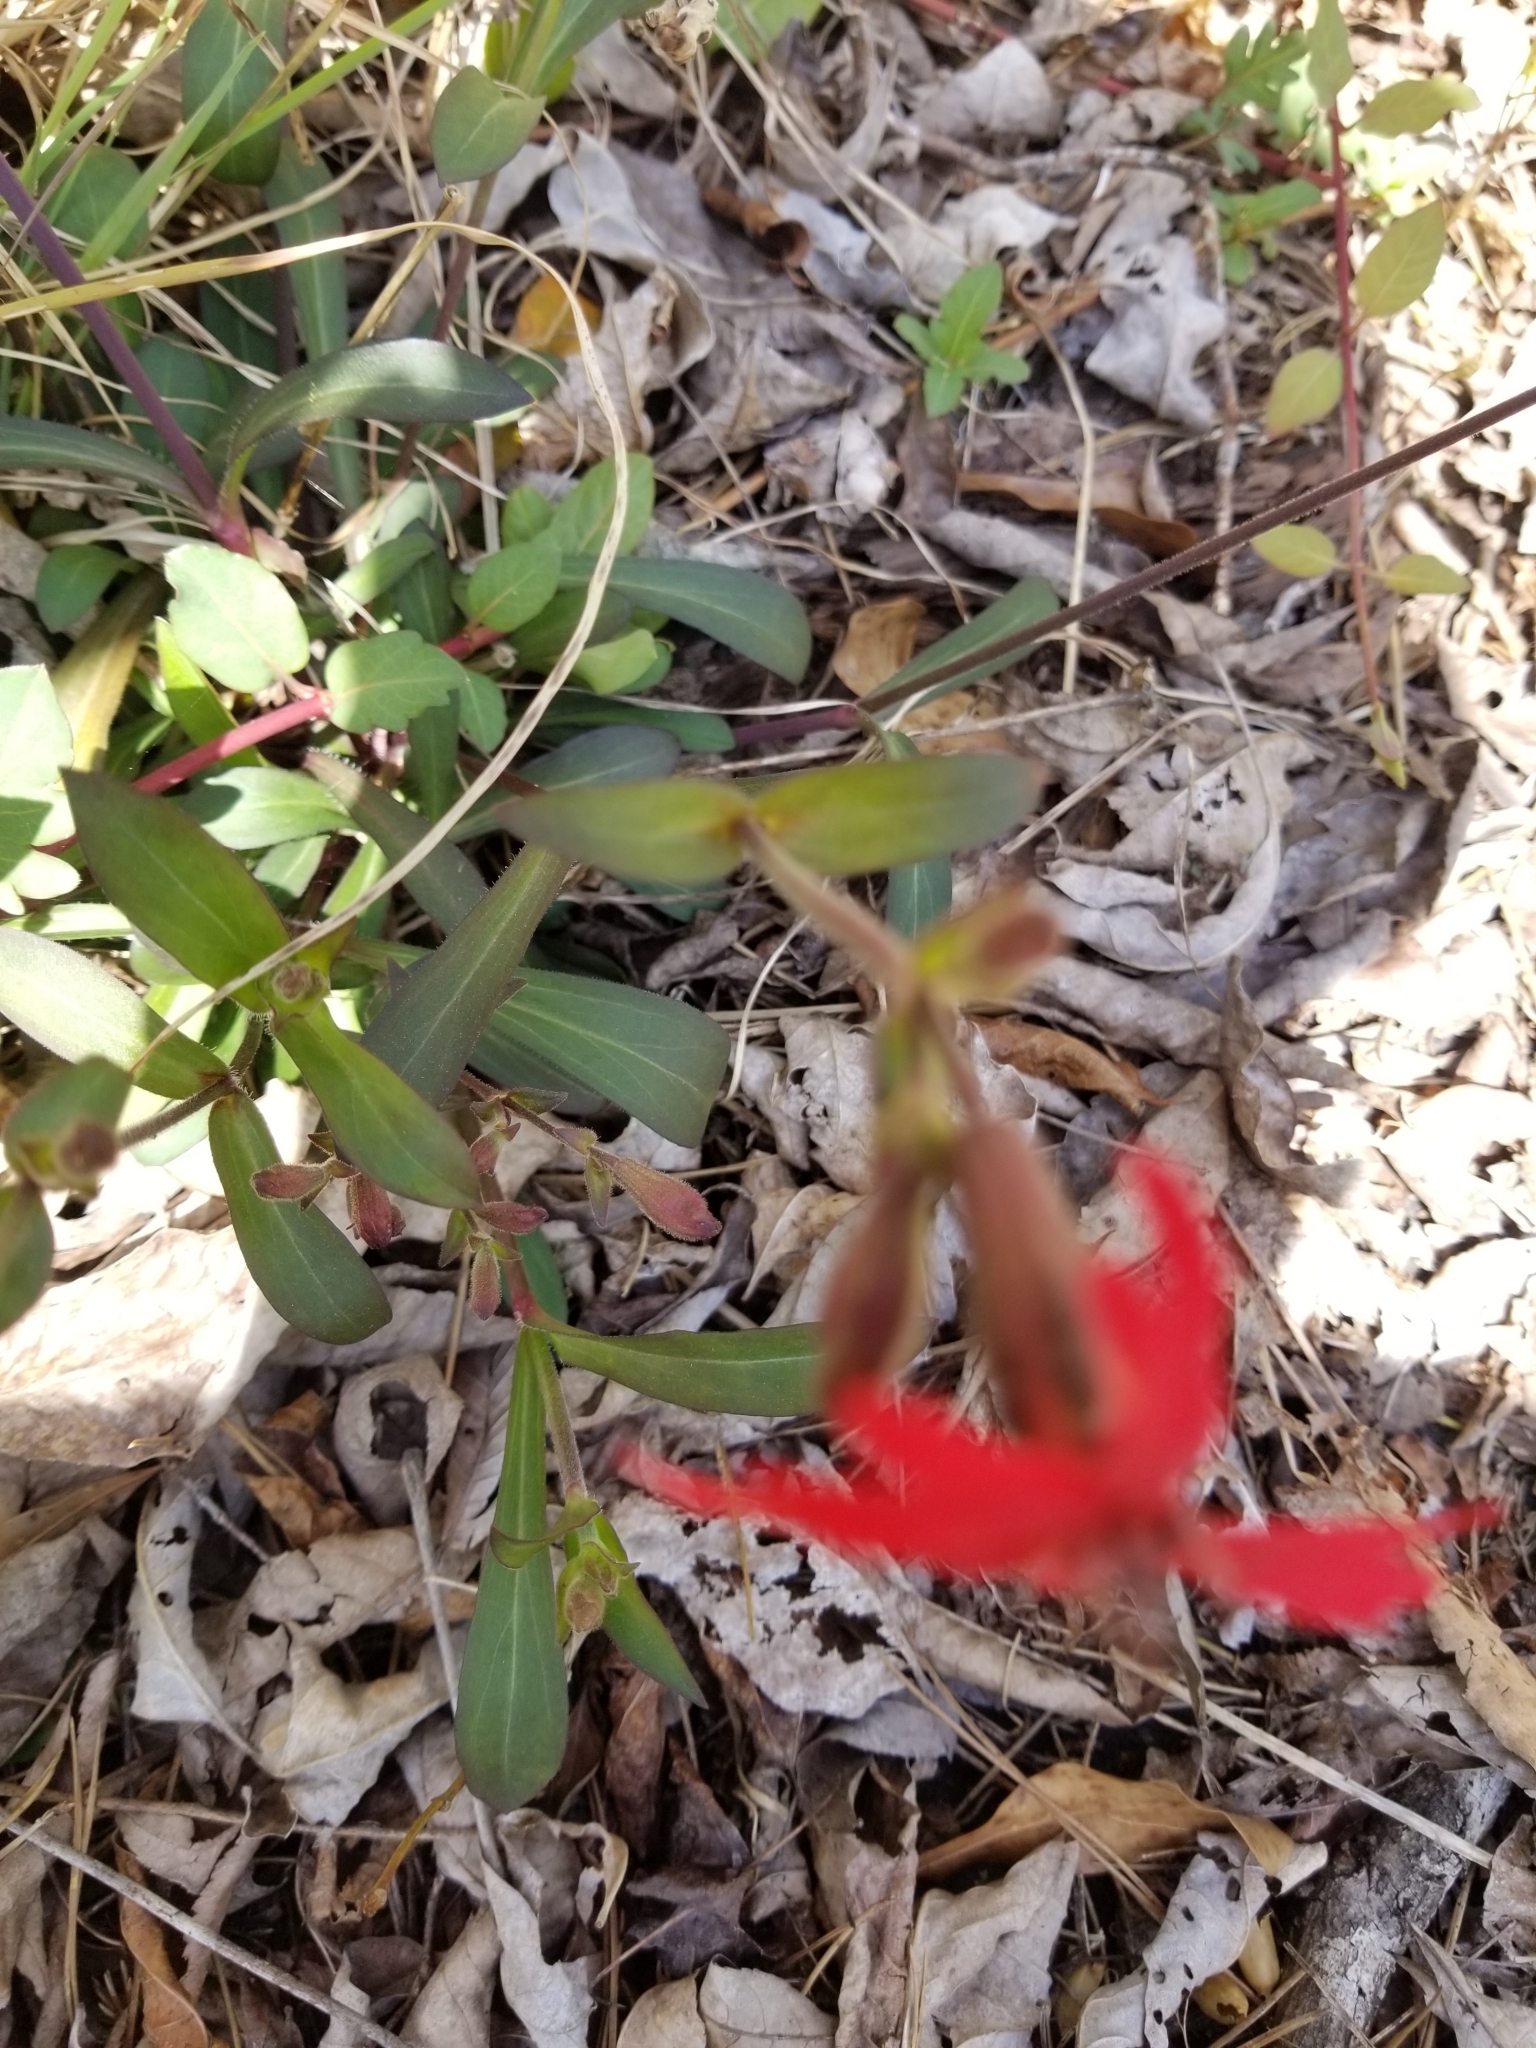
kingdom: Plantae
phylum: Tracheophyta
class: Magnoliopsida
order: Caryophyllales
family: Caryophyllaceae
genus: Silene
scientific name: Silene virginica
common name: Fire-pink
